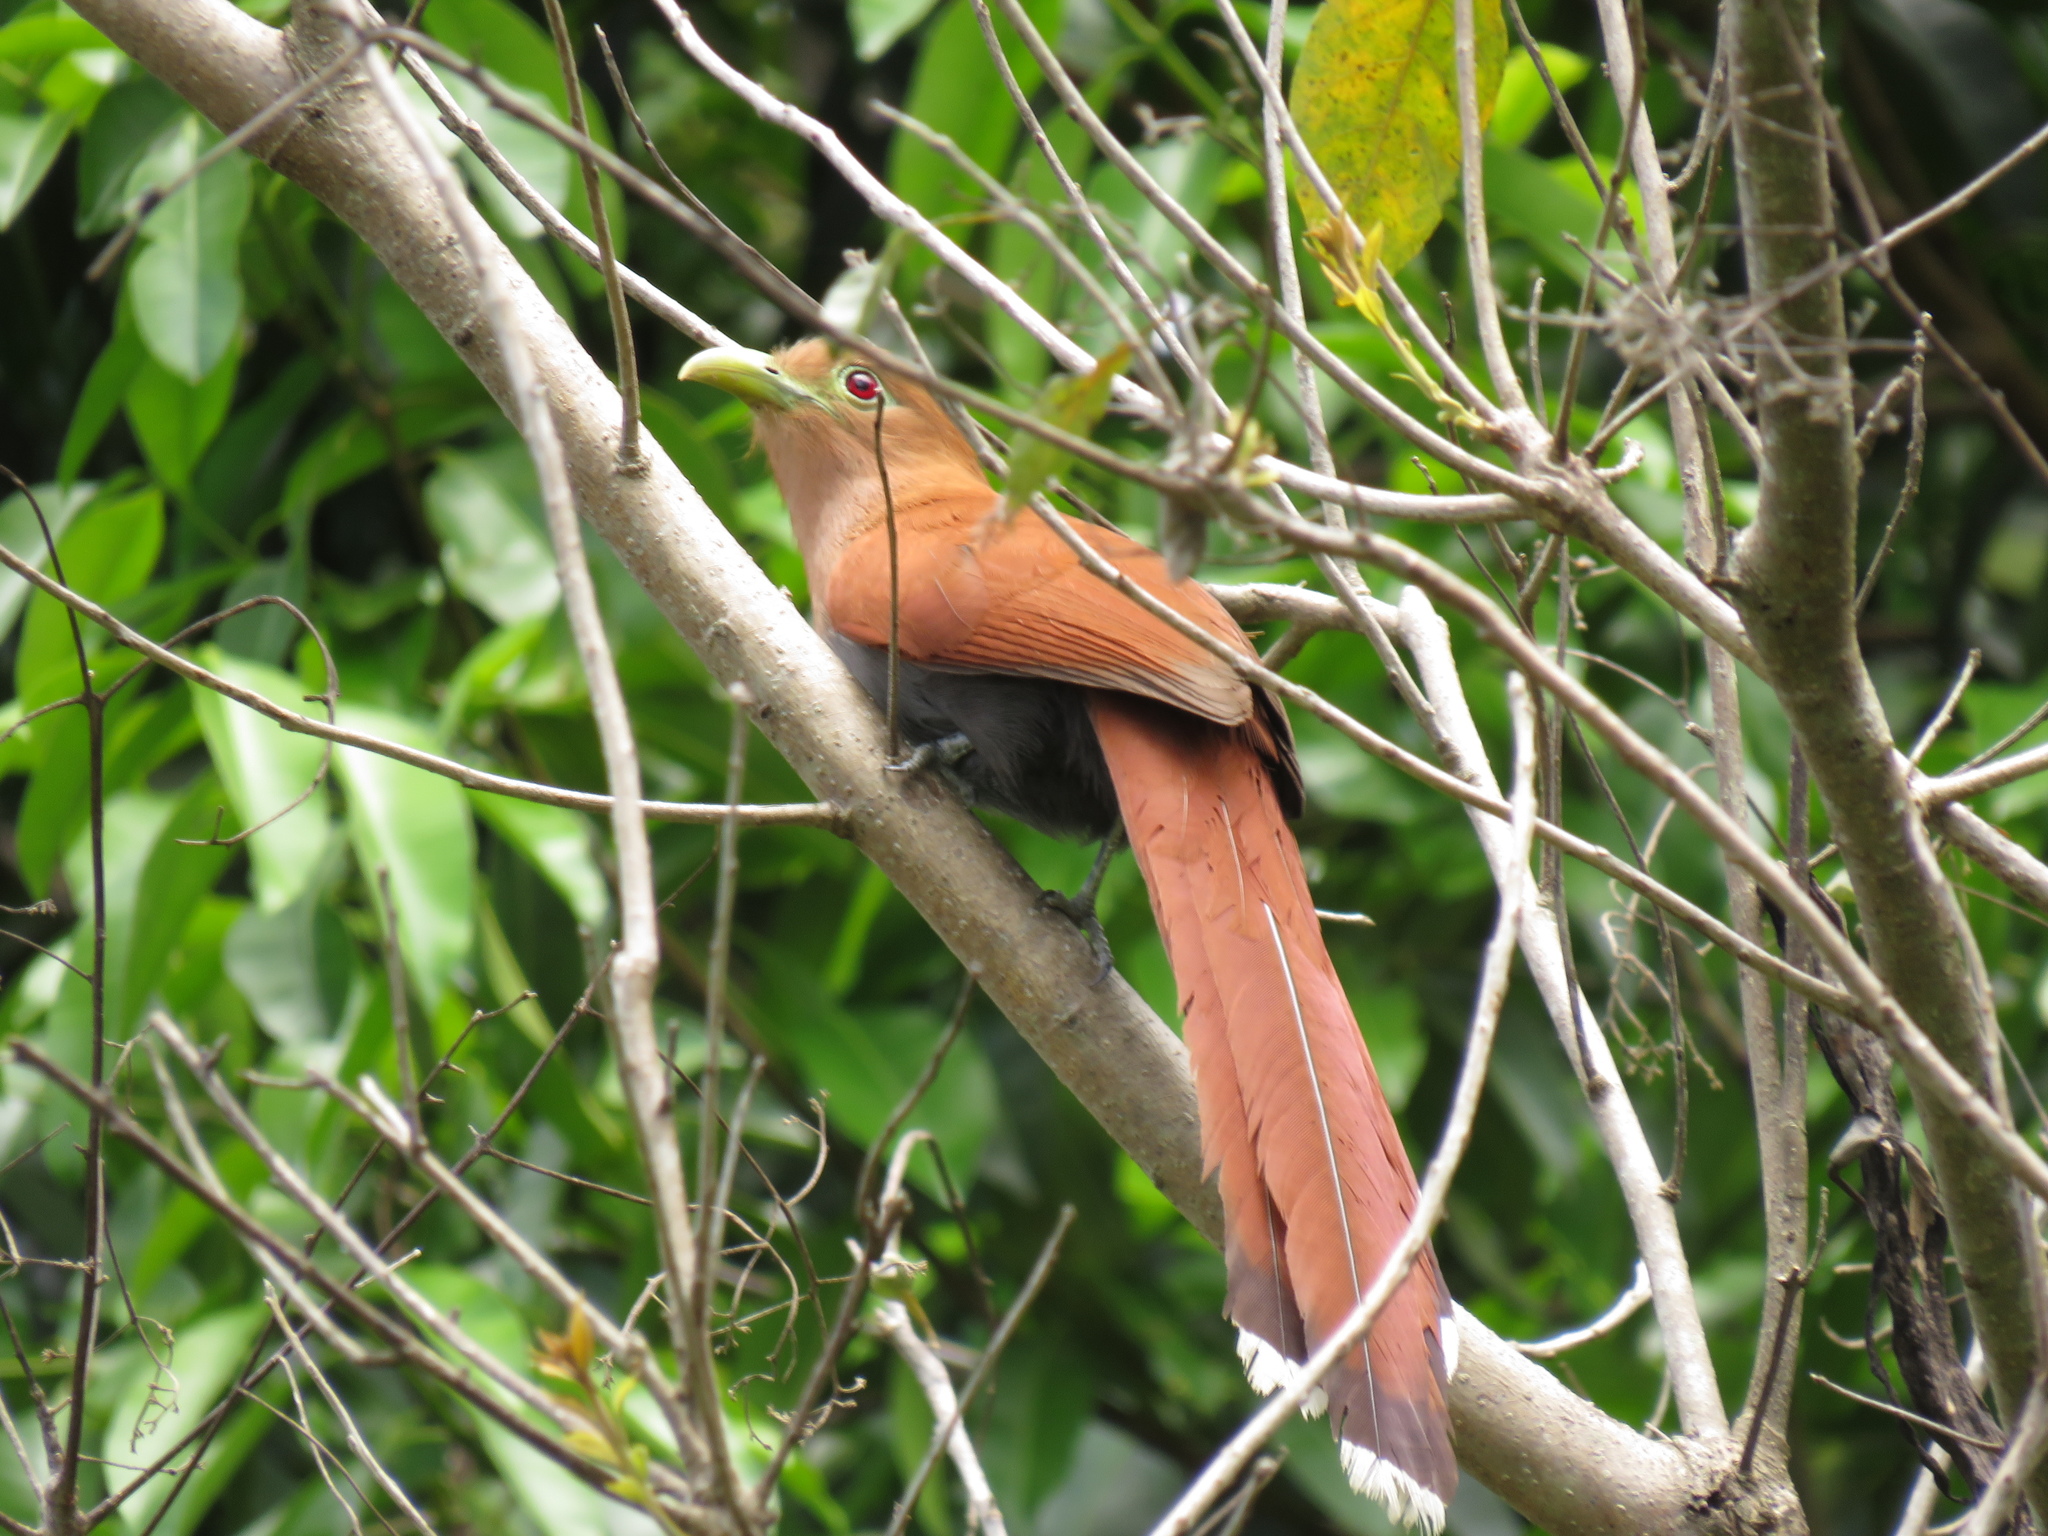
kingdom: Animalia
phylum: Chordata
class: Aves
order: Cuculiformes
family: Cuculidae
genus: Piaya
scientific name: Piaya cayana
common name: Squirrel cuckoo
